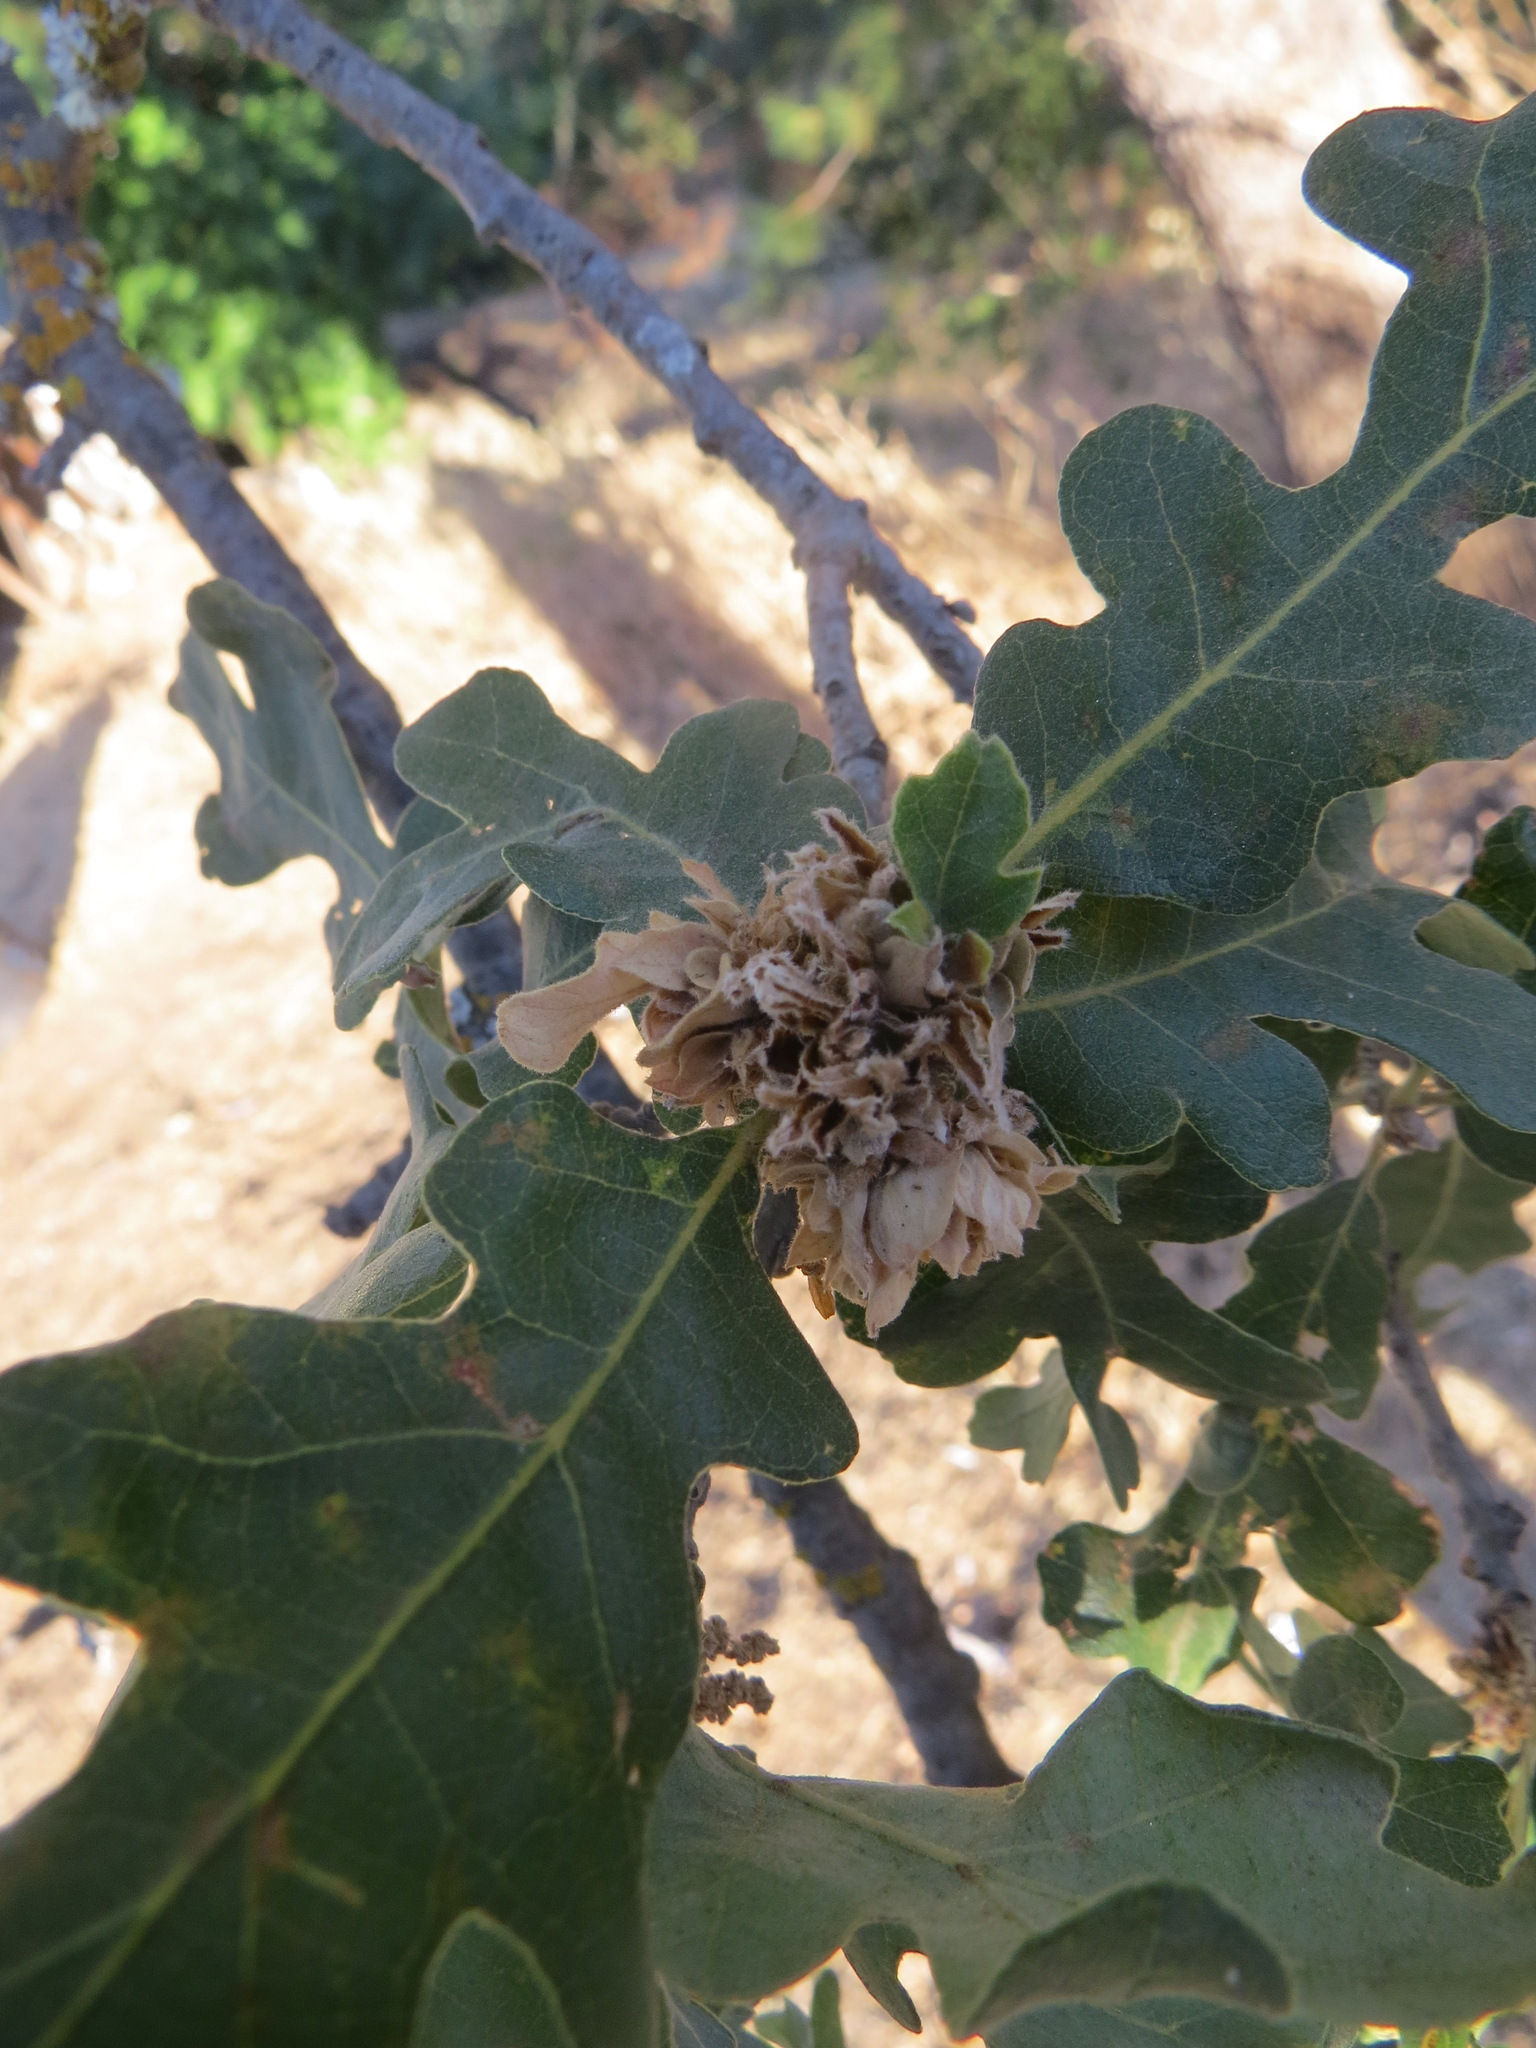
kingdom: Animalia
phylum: Arthropoda
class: Insecta
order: Hymenoptera
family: Cynipidae
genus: Andricus
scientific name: Andricus
